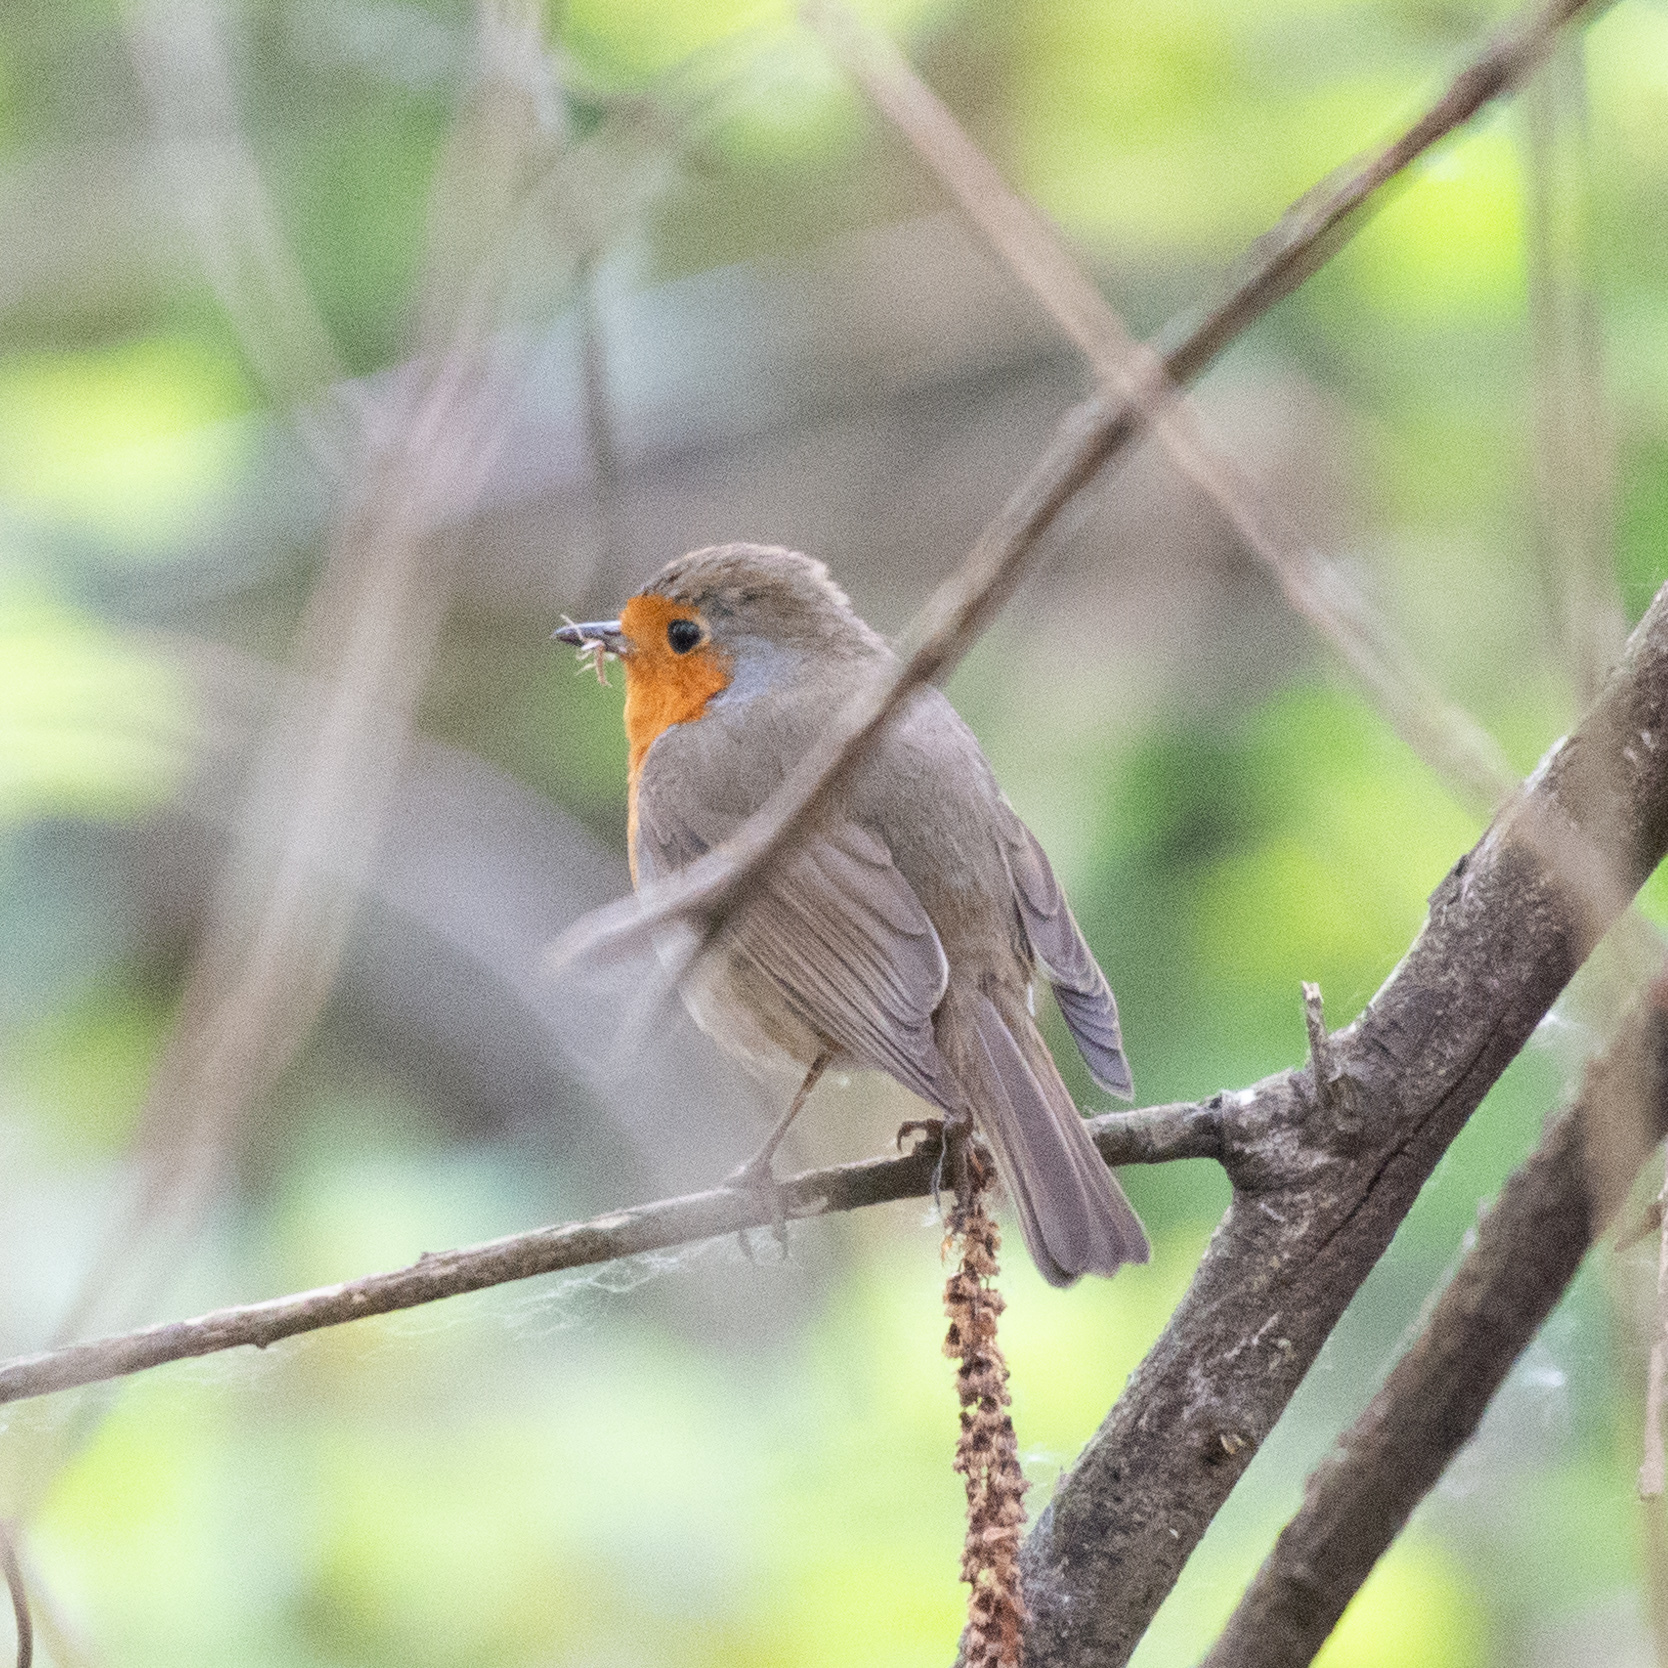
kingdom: Animalia
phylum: Chordata
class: Aves
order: Passeriformes
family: Muscicapidae
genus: Erithacus
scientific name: Erithacus rubecula
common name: European robin
